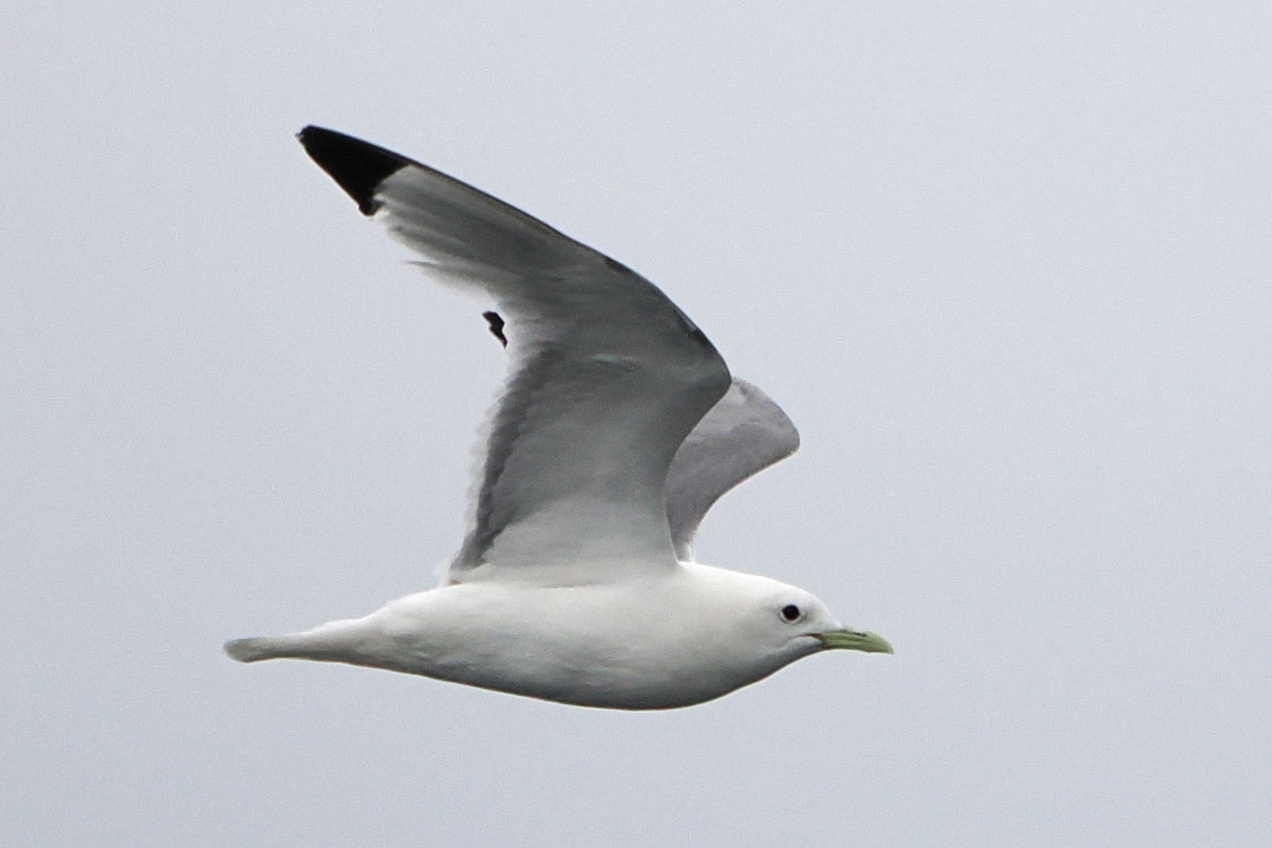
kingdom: Animalia
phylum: Chordata
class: Aves
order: Charadriiformes
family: Laridae
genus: Rissa
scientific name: Rissa tridactyla
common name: Black-legged kittiwake
